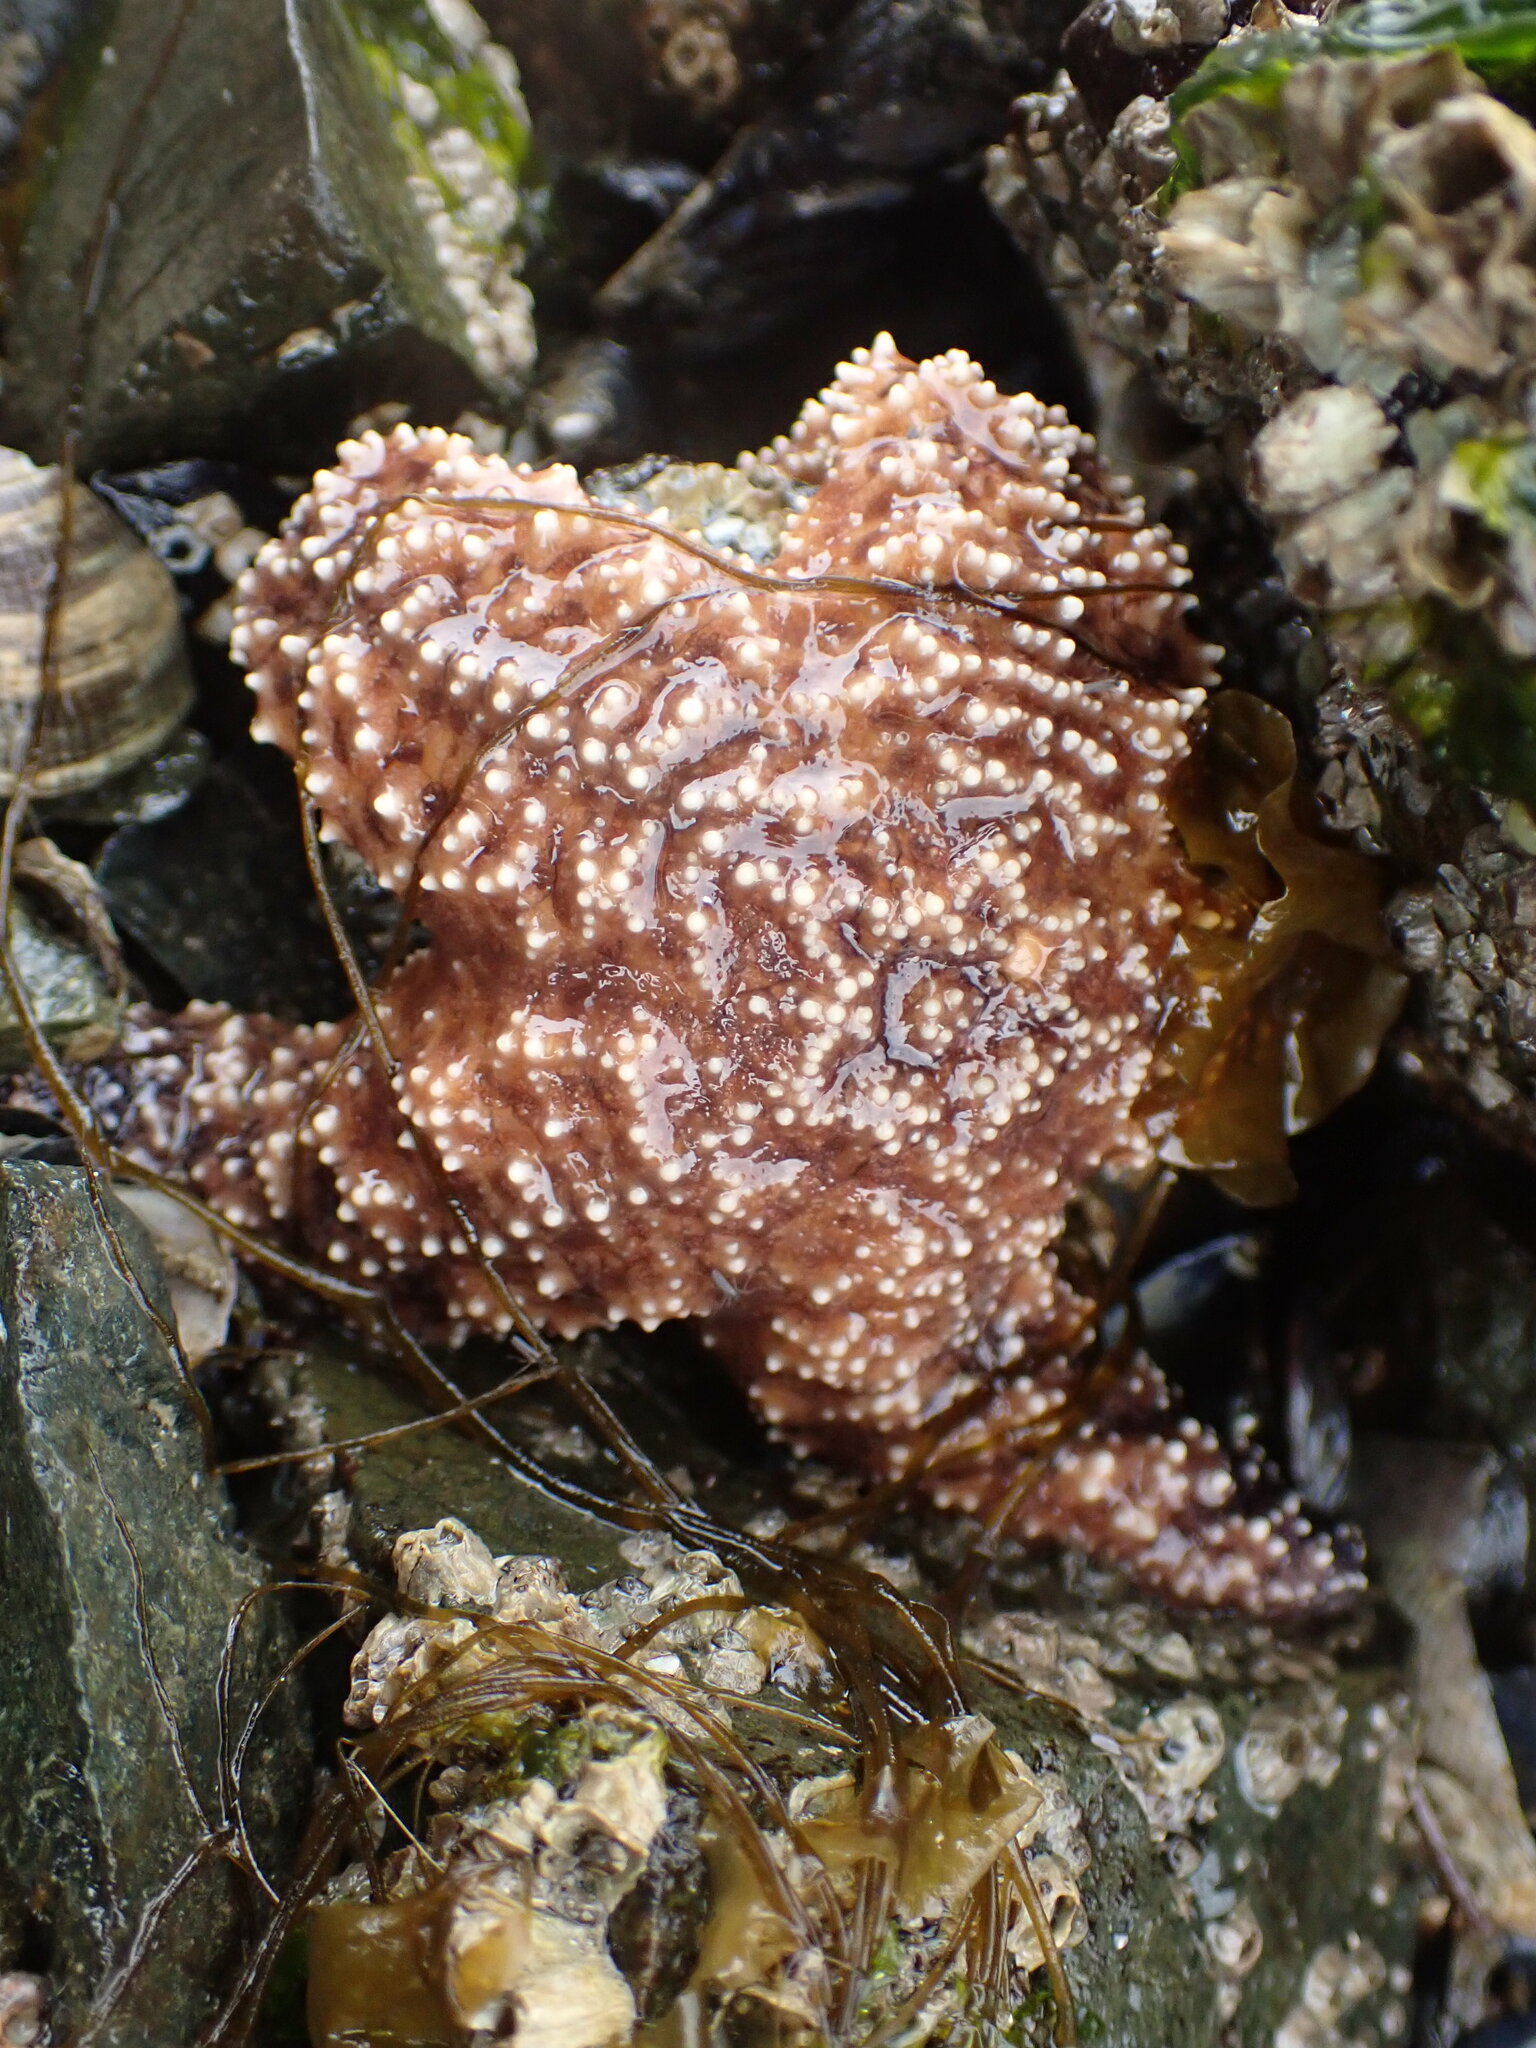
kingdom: Animalia
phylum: Echinodermata
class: Asteroidea
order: Forcipulatida
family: Asteriidae
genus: Pisaster
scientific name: Pisaster ochraceus
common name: Ochre stars
